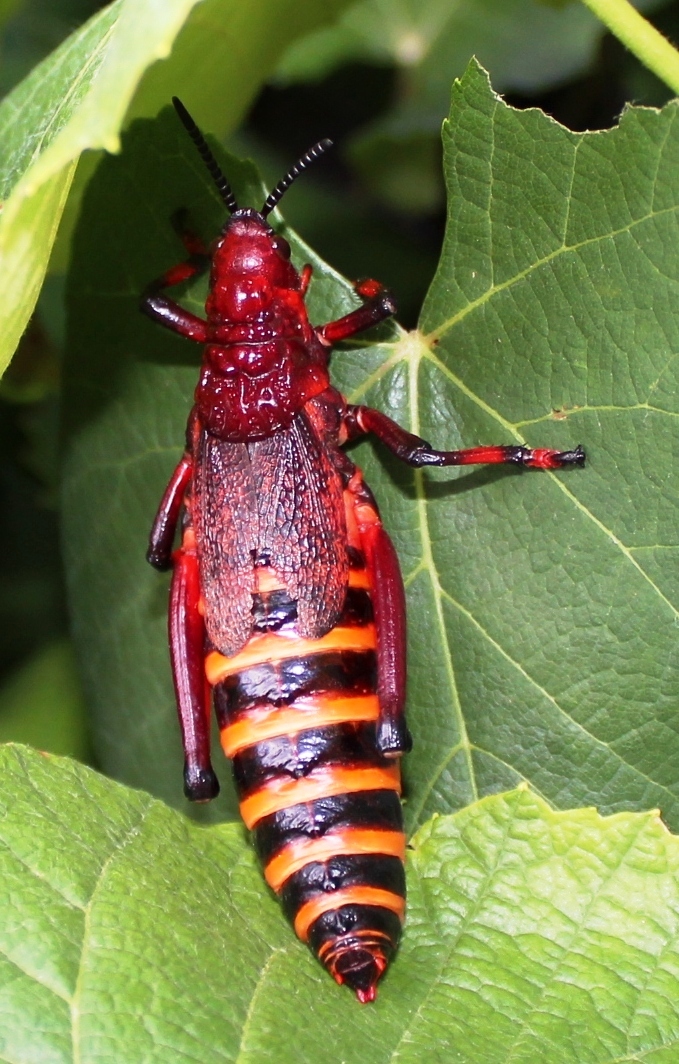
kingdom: Animalia
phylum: Arthropoda
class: Insecta
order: Orthoptera
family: Pyrgomorphidae
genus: Dictyophorus
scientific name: Dictyophorus spumans
